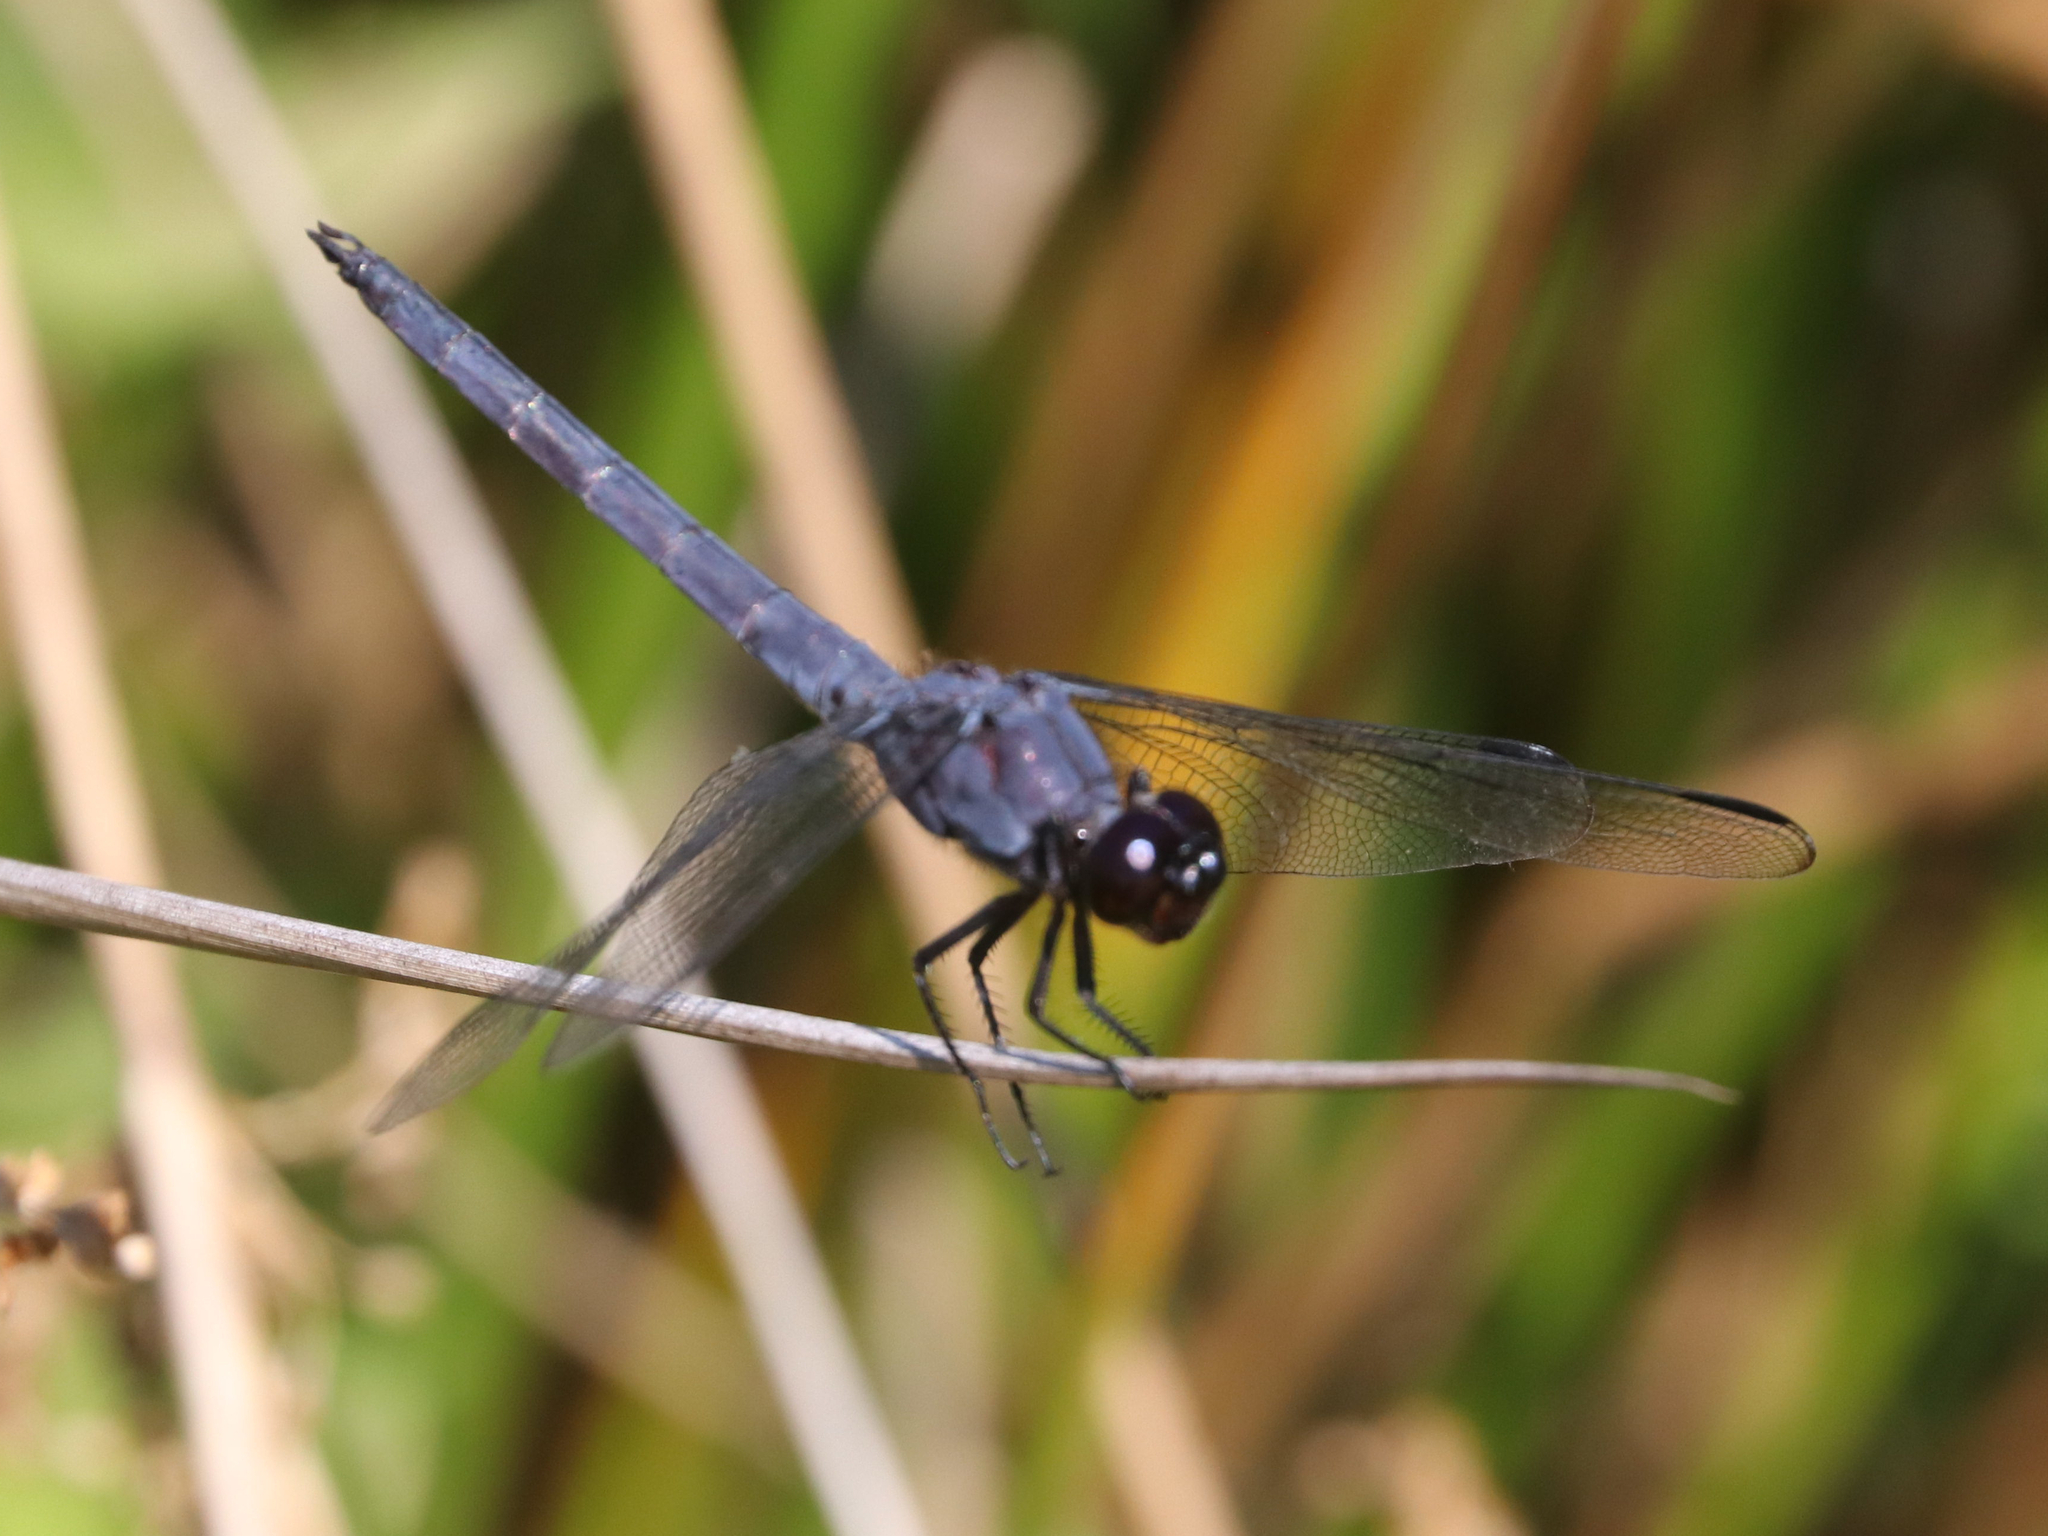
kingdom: Animalia
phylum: Arthropoda
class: Insecta
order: Odonata
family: Libellulidae
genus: Libellula
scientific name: Libellula incesta
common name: Slaty skimmer
